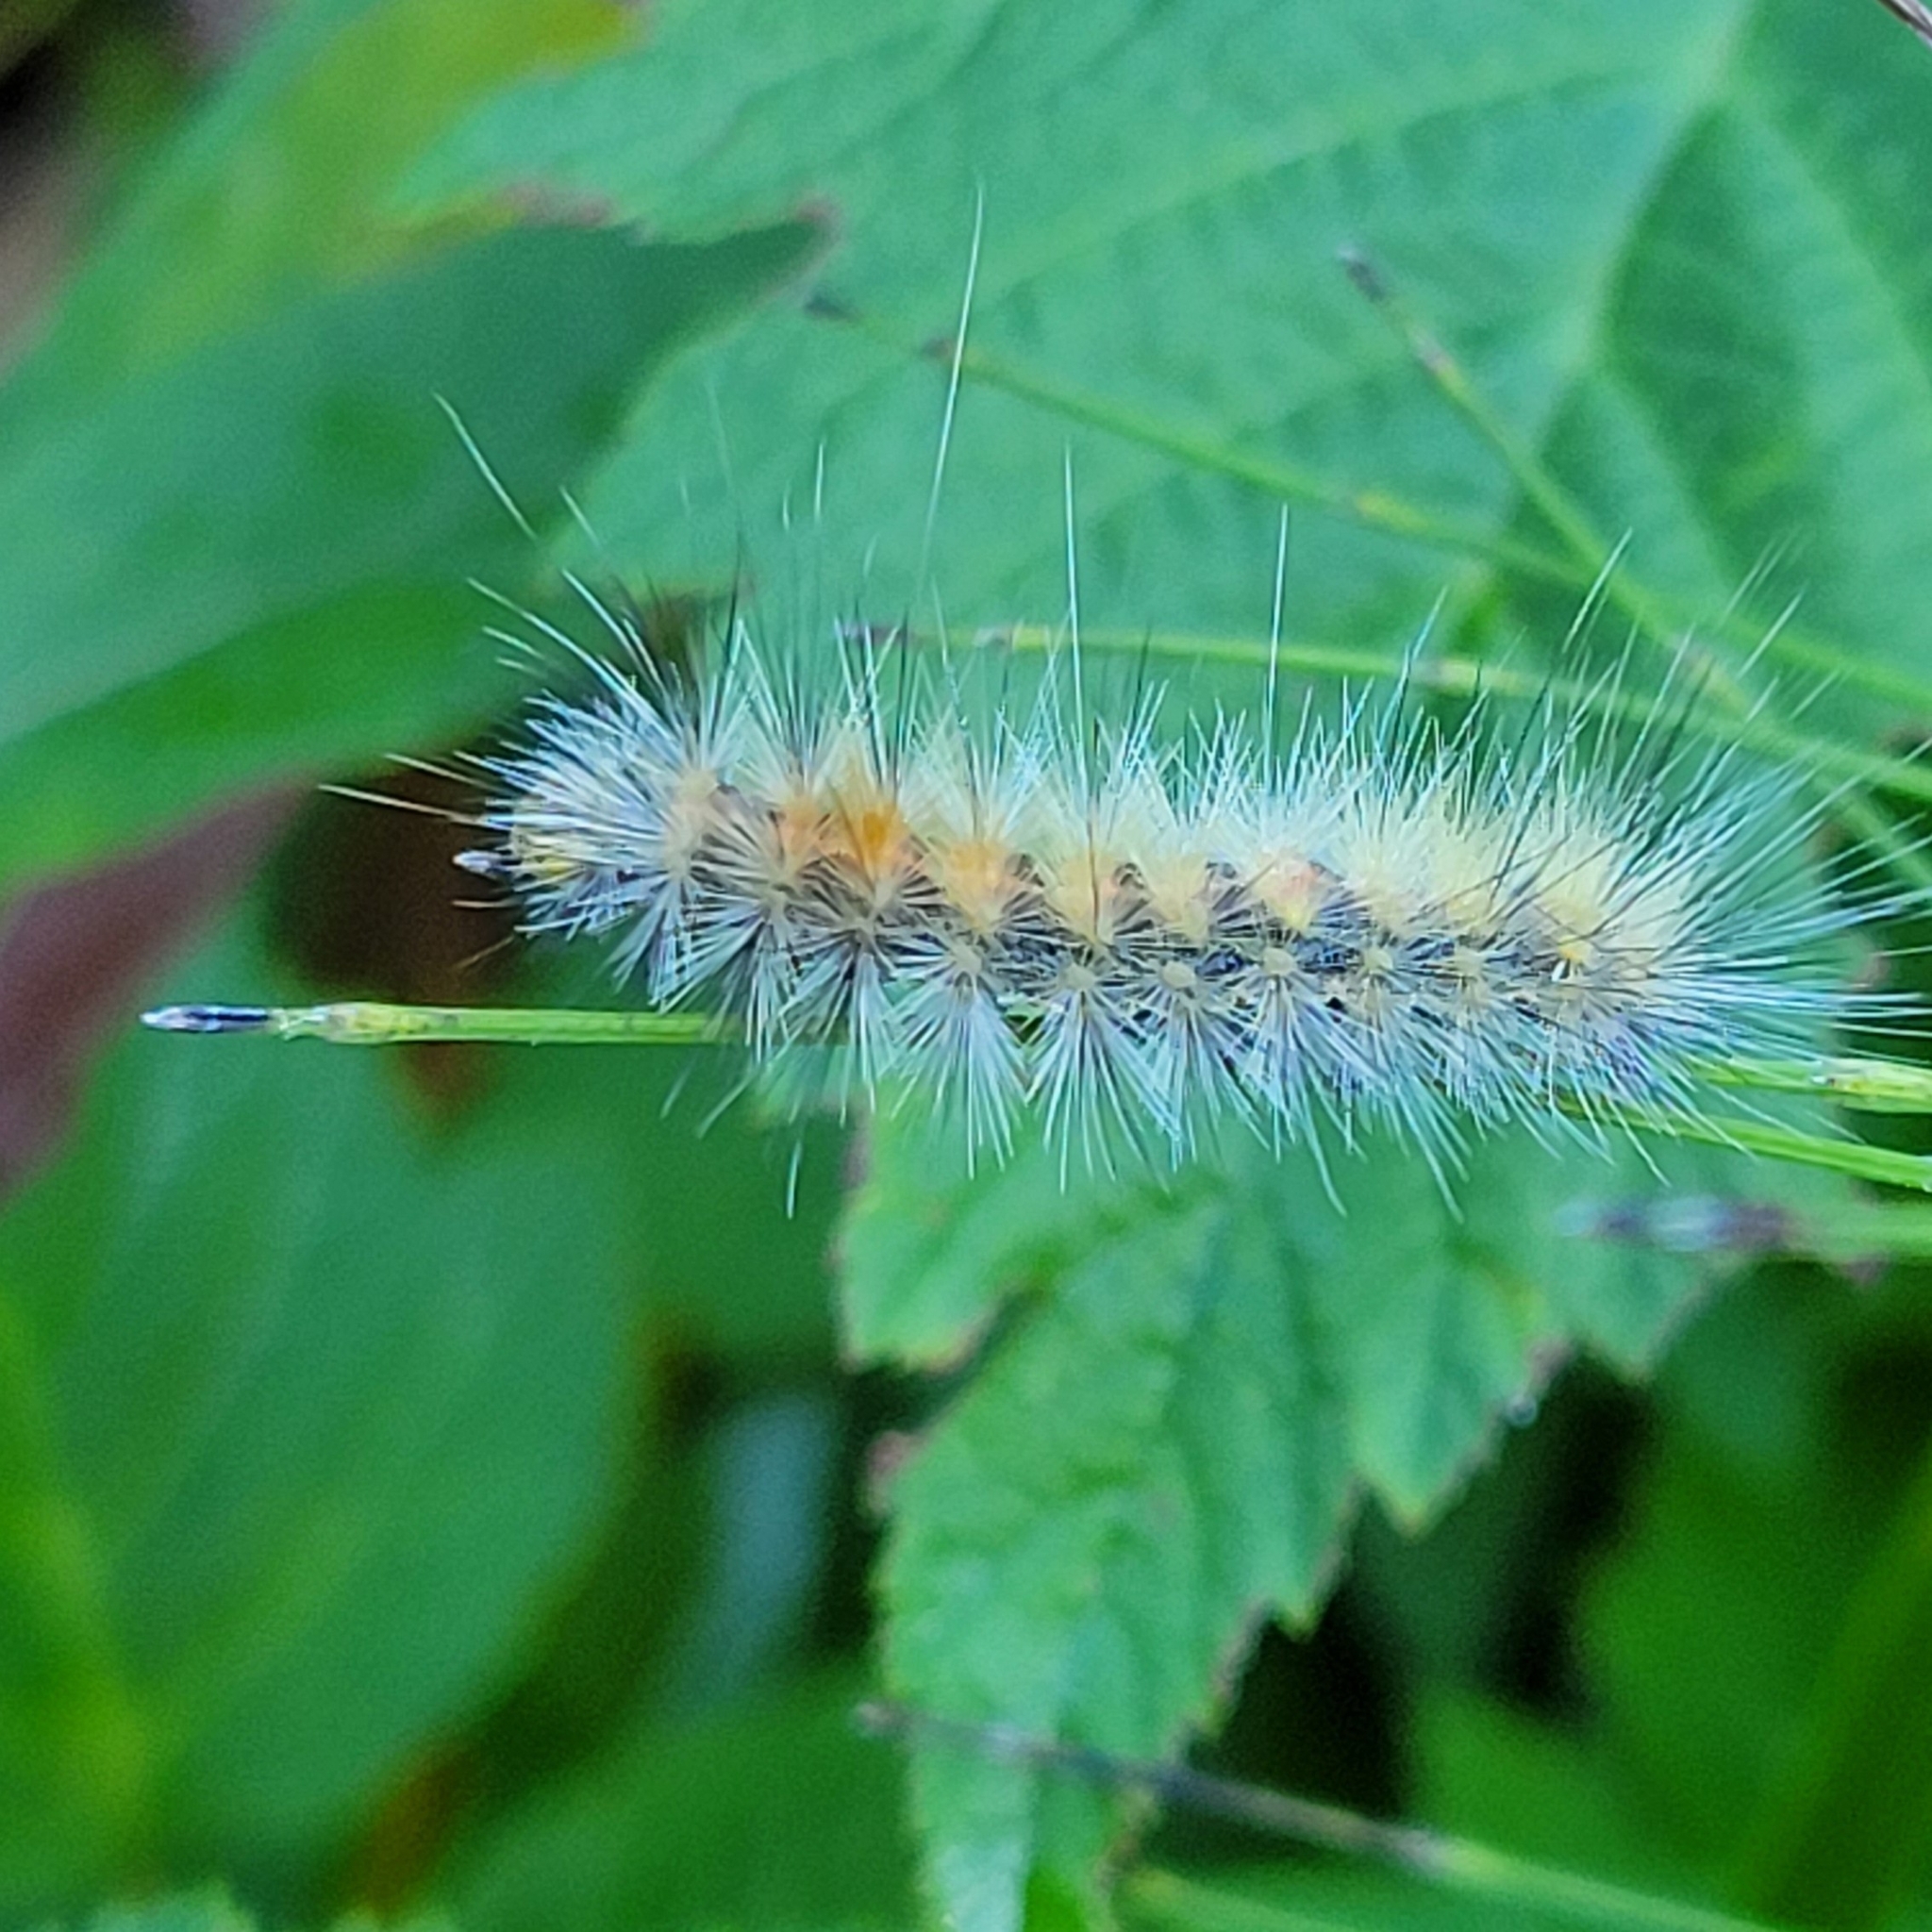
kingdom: Animalia
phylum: Arthropoda
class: Insecta
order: Lepidoptera
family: Erebidae
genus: Spilosoma
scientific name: Spilosoma virginica
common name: Virginia tiger moth
